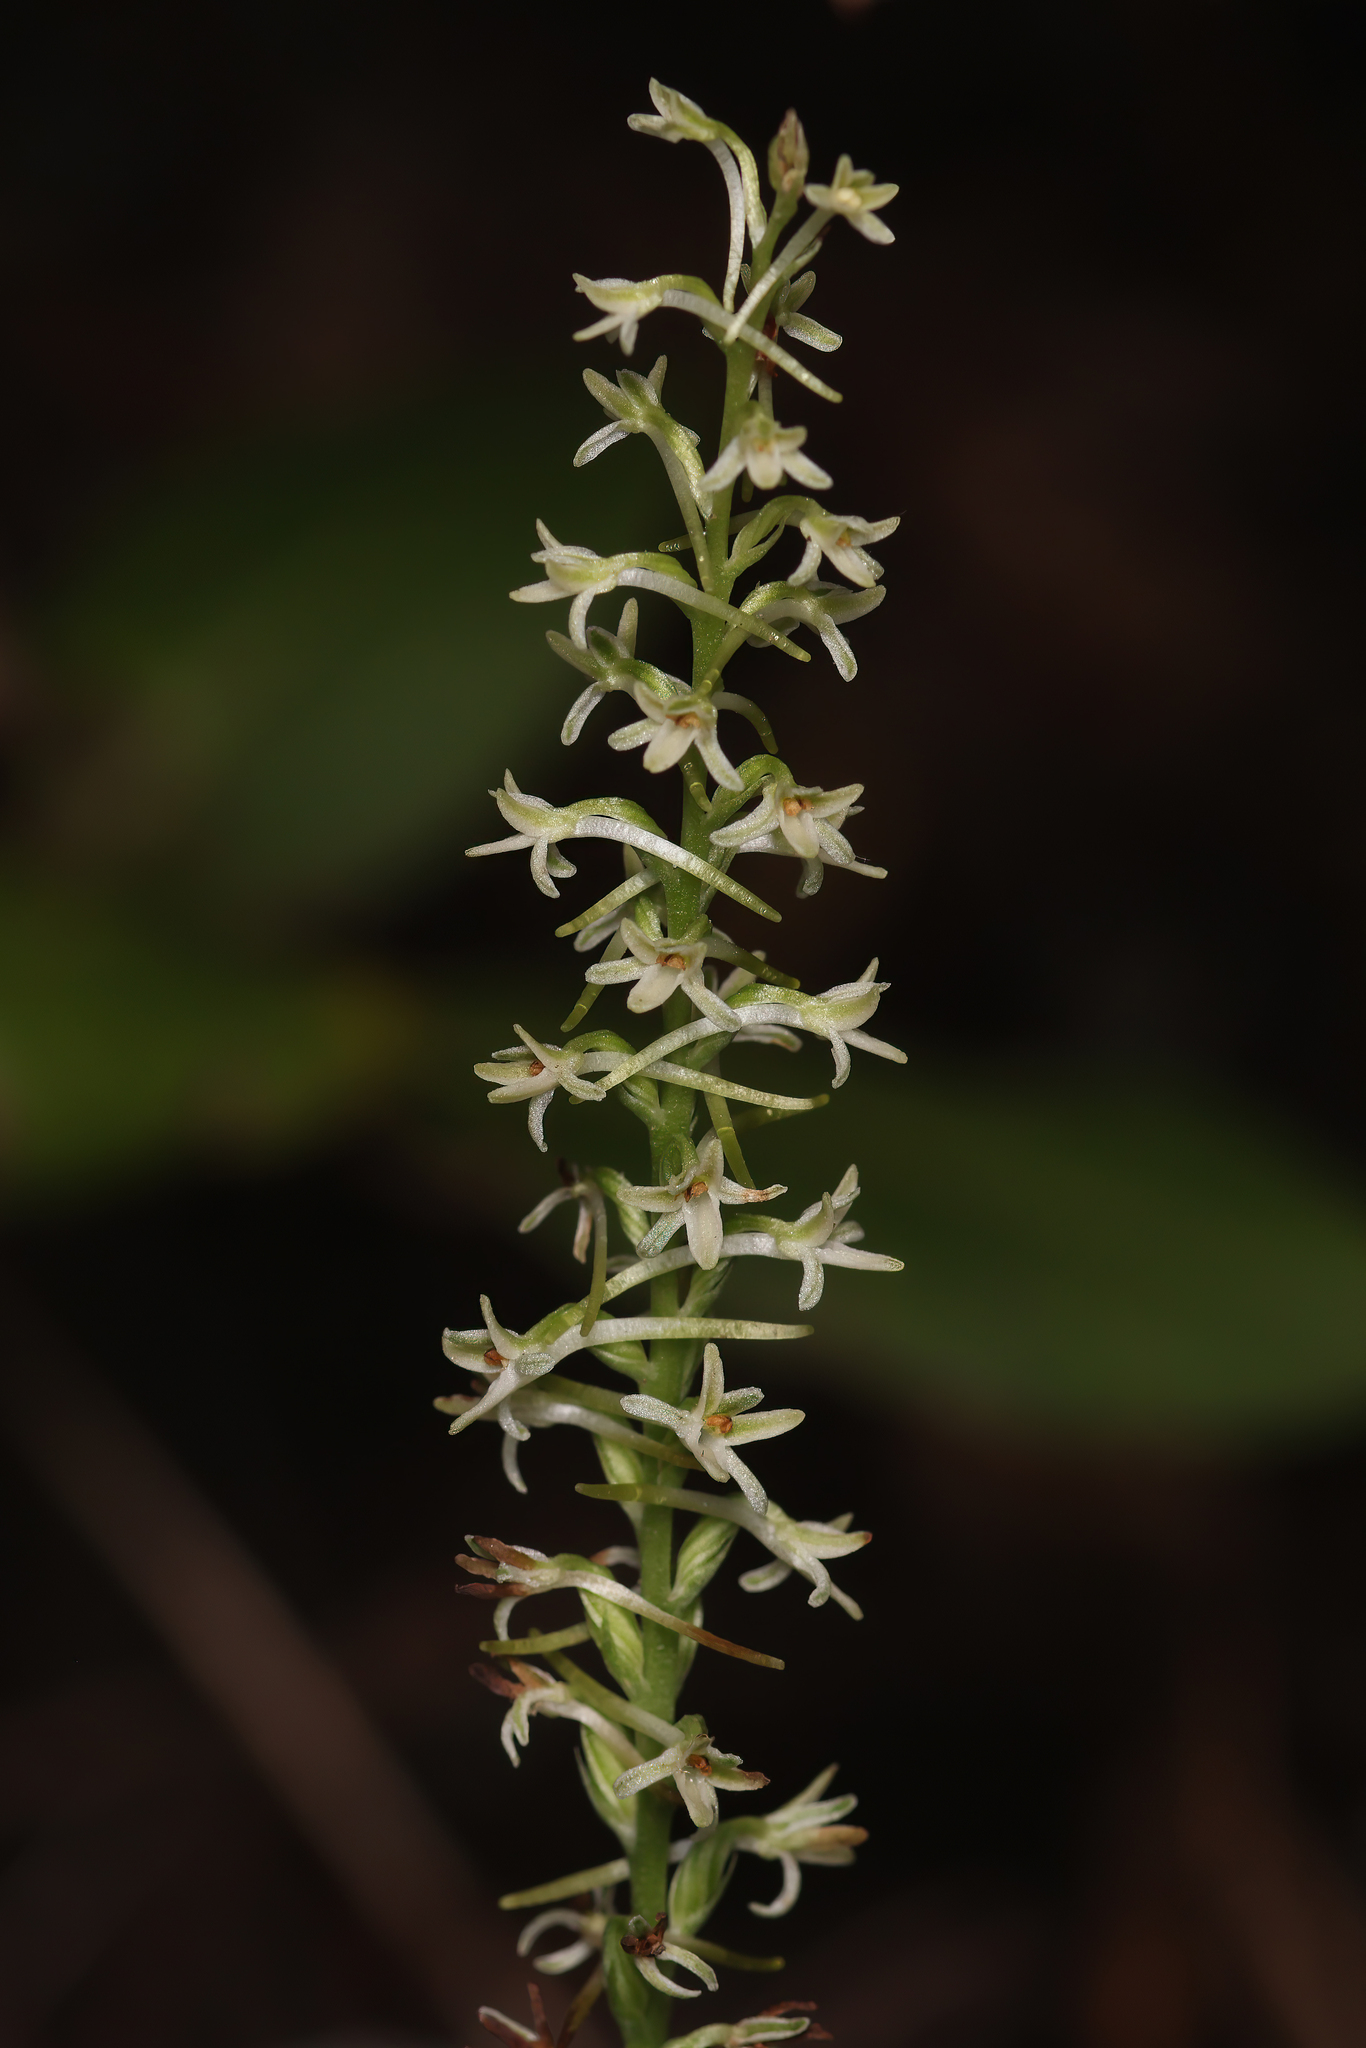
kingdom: Plantae
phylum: Tracheophyta
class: Liliopsida
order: Asparagales
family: Orchidaceae
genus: Platanthera
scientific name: Platanthera transversa
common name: Royal rein orchid
